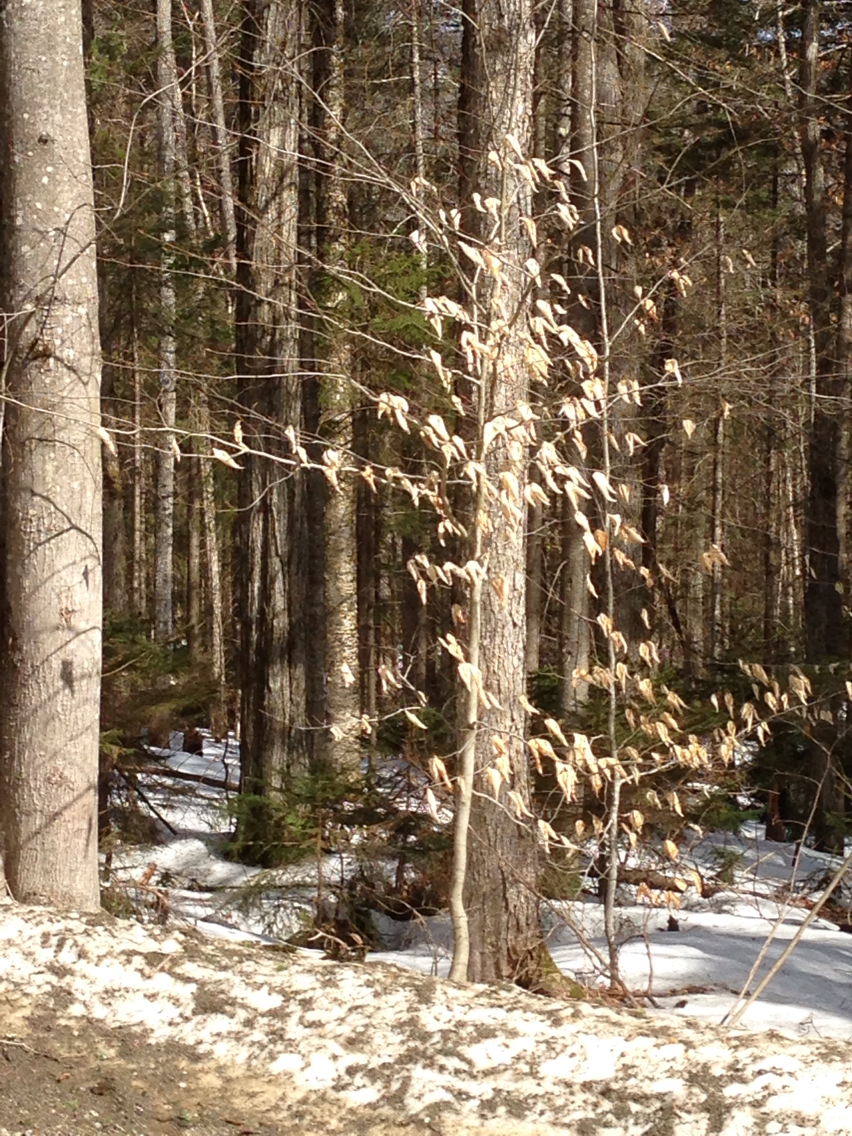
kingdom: Plantae
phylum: Tracheophyta
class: Magnoliopsida
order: Fagales
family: Fagaceae
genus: Fagus
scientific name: Fagus grandifolia
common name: American beech
